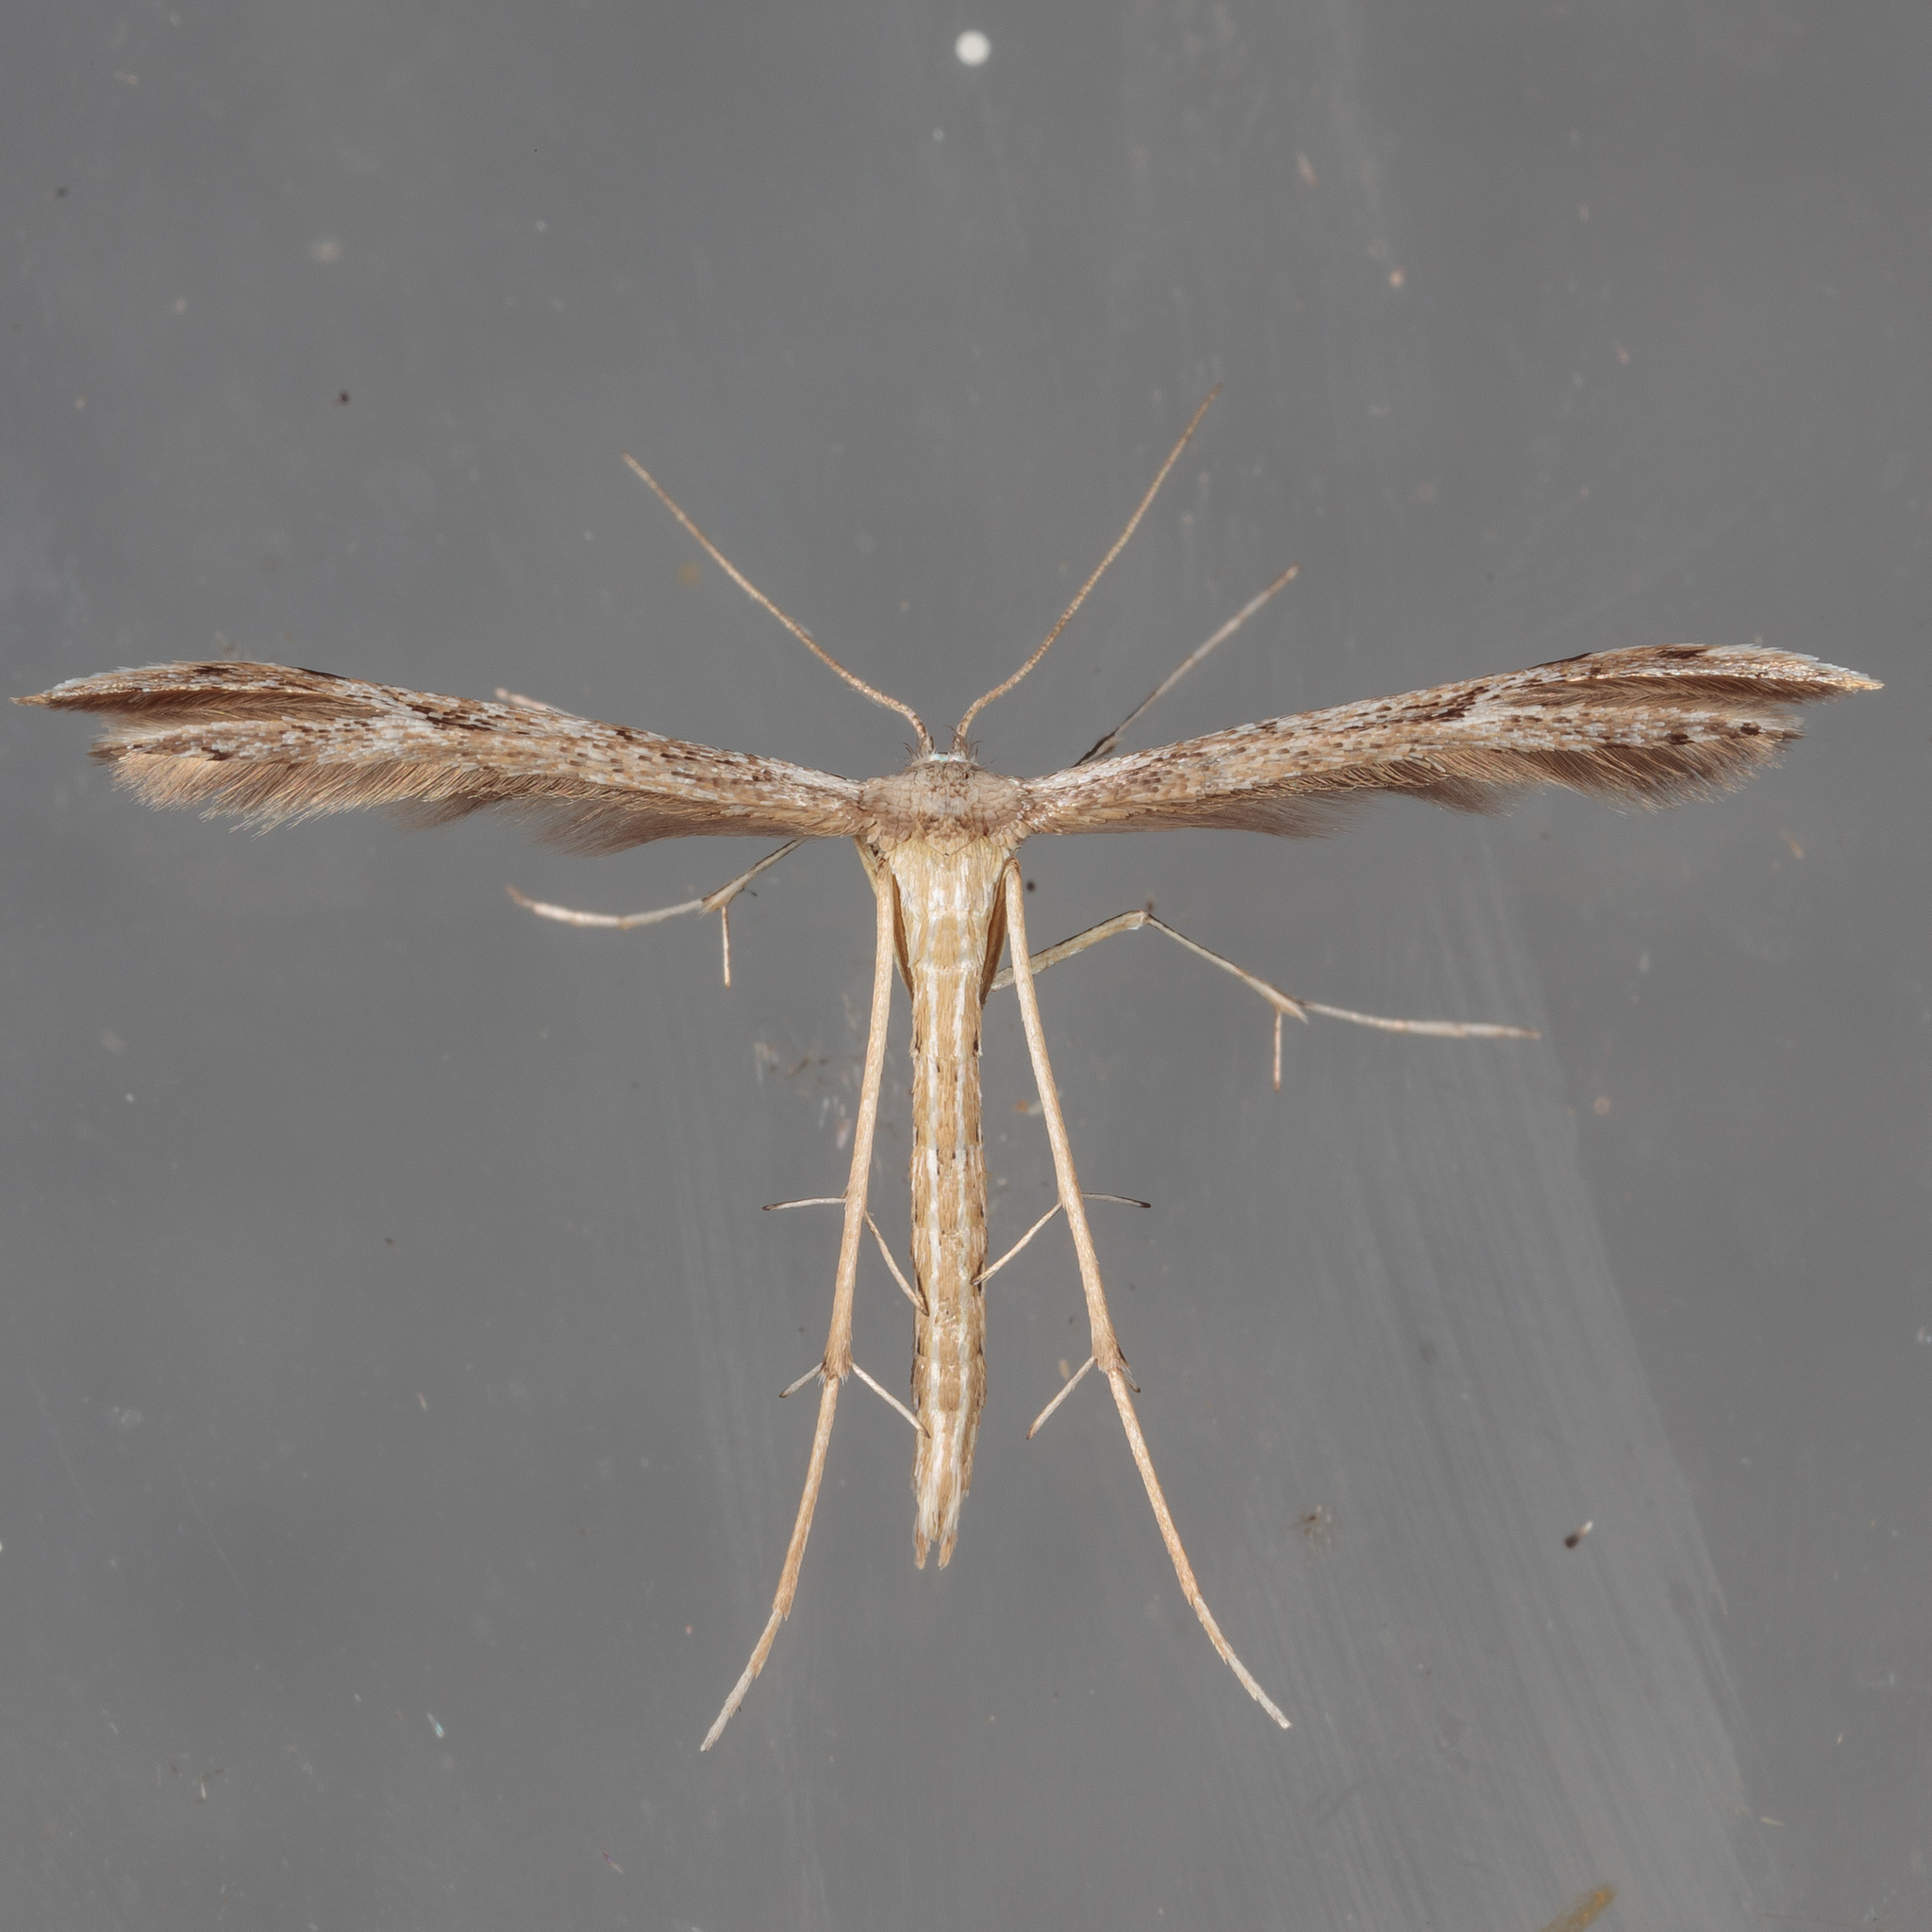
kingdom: Animalia
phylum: Arthropoda
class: Insecta
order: Lepidoptera
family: Pterophoridae
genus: Pselnophorus
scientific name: Pselnophorus belfragei
